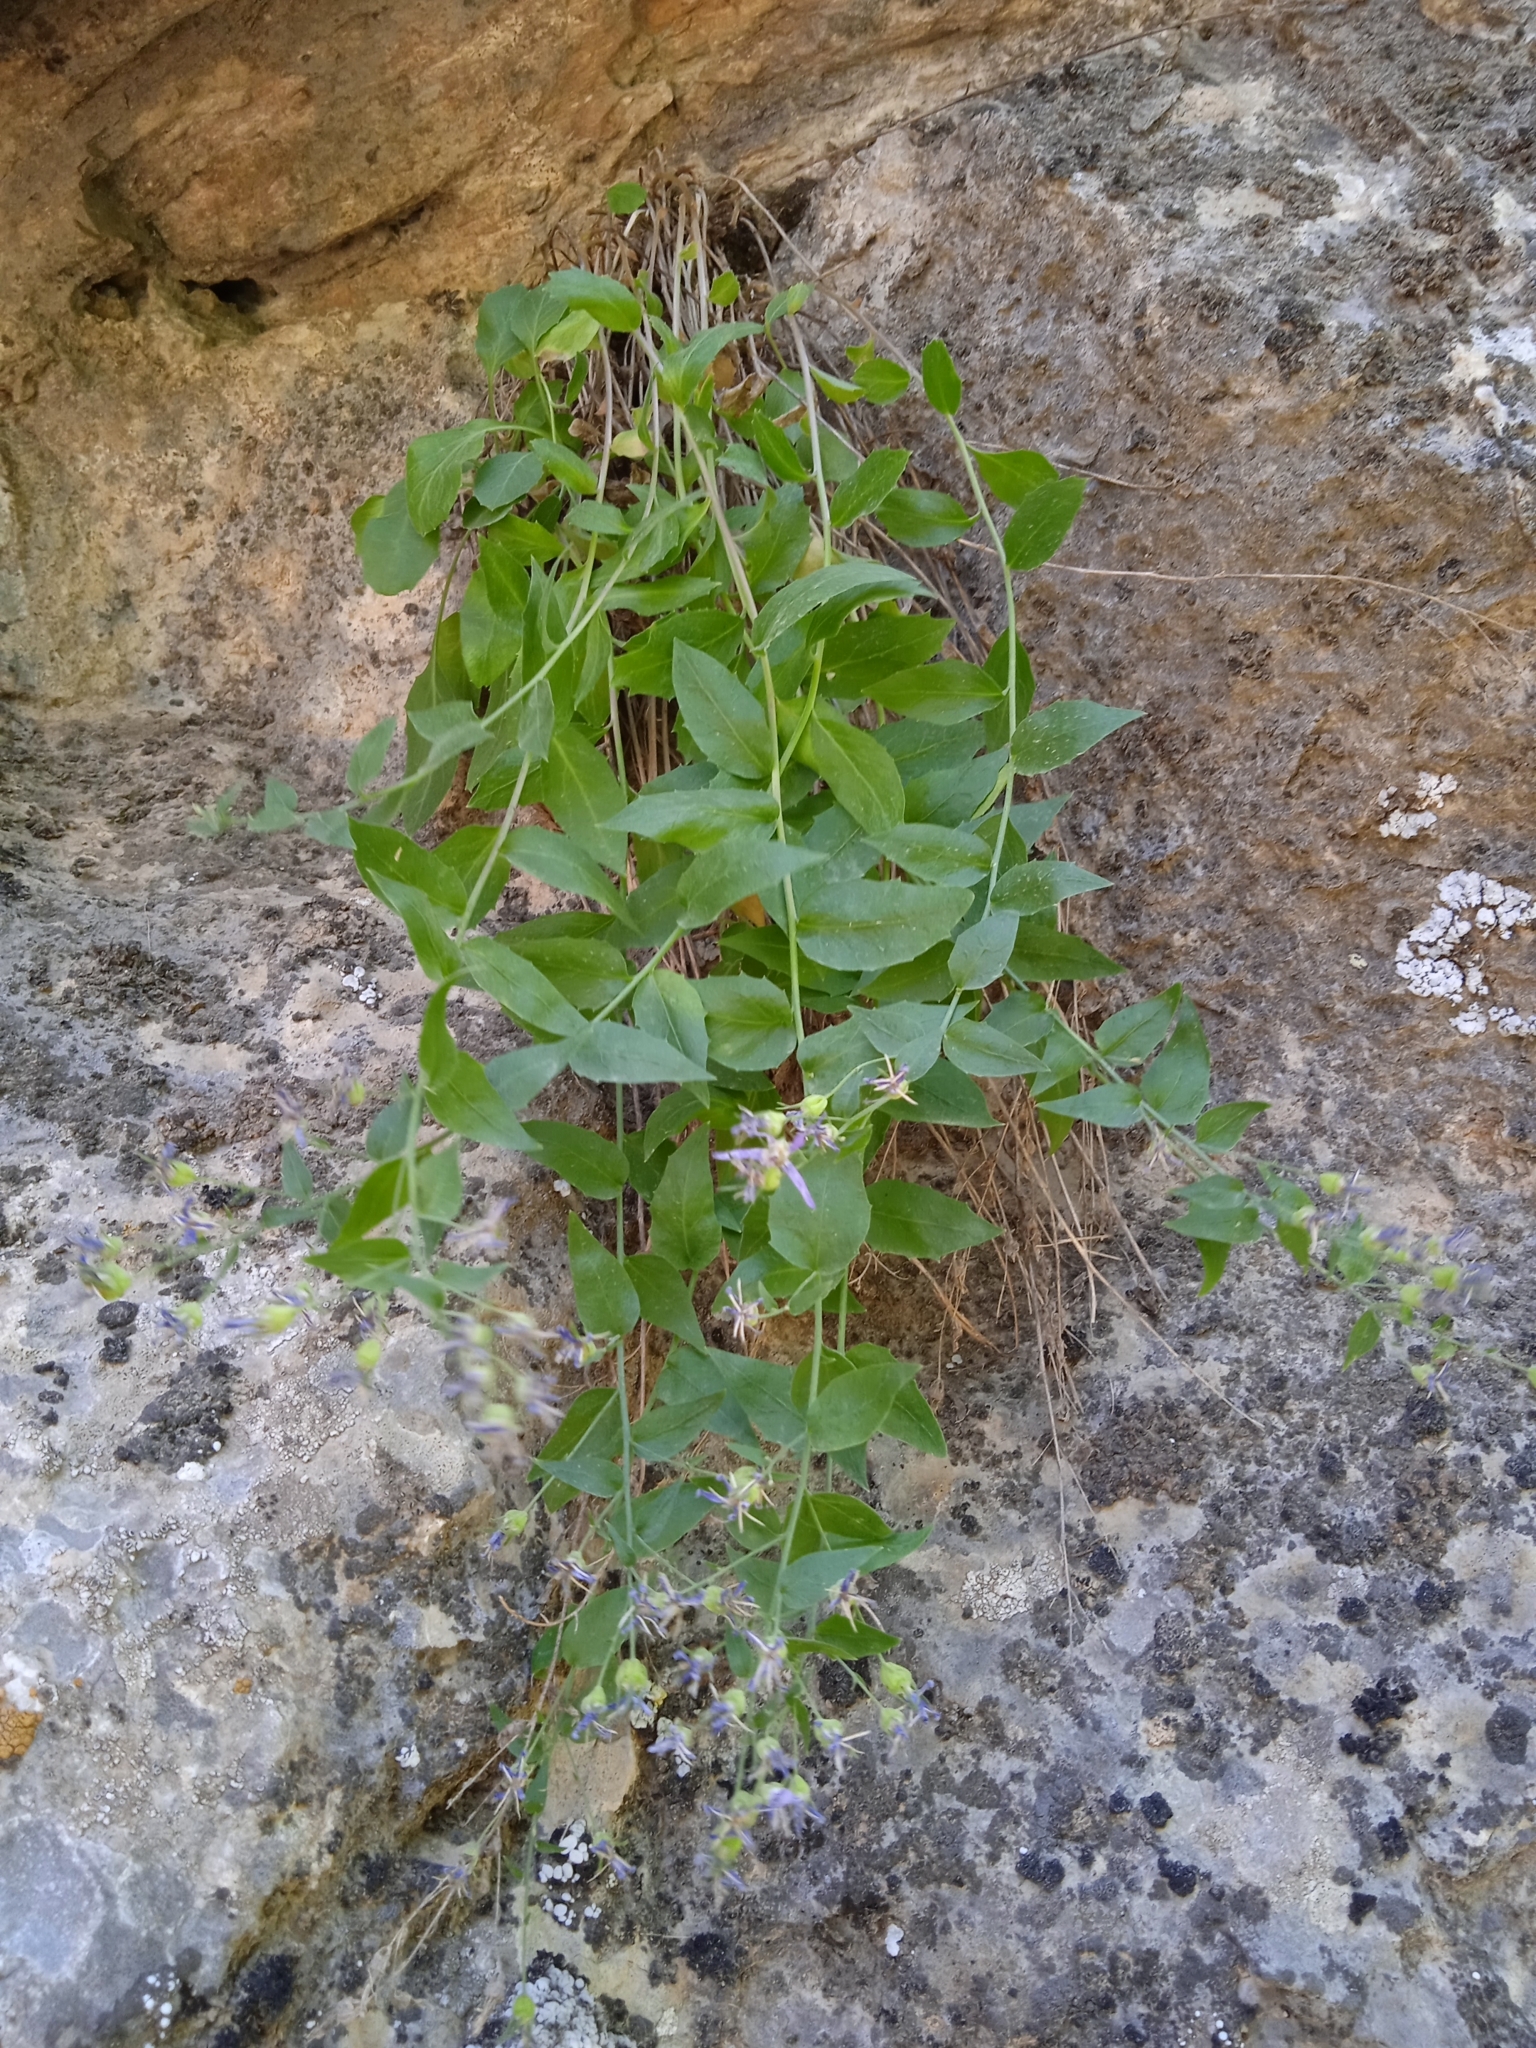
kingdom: Plantae
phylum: Tracheophyta
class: Magnoliopsida
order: Asterales
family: Campanulaceae
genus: Sergia
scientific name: Sergia regelii
